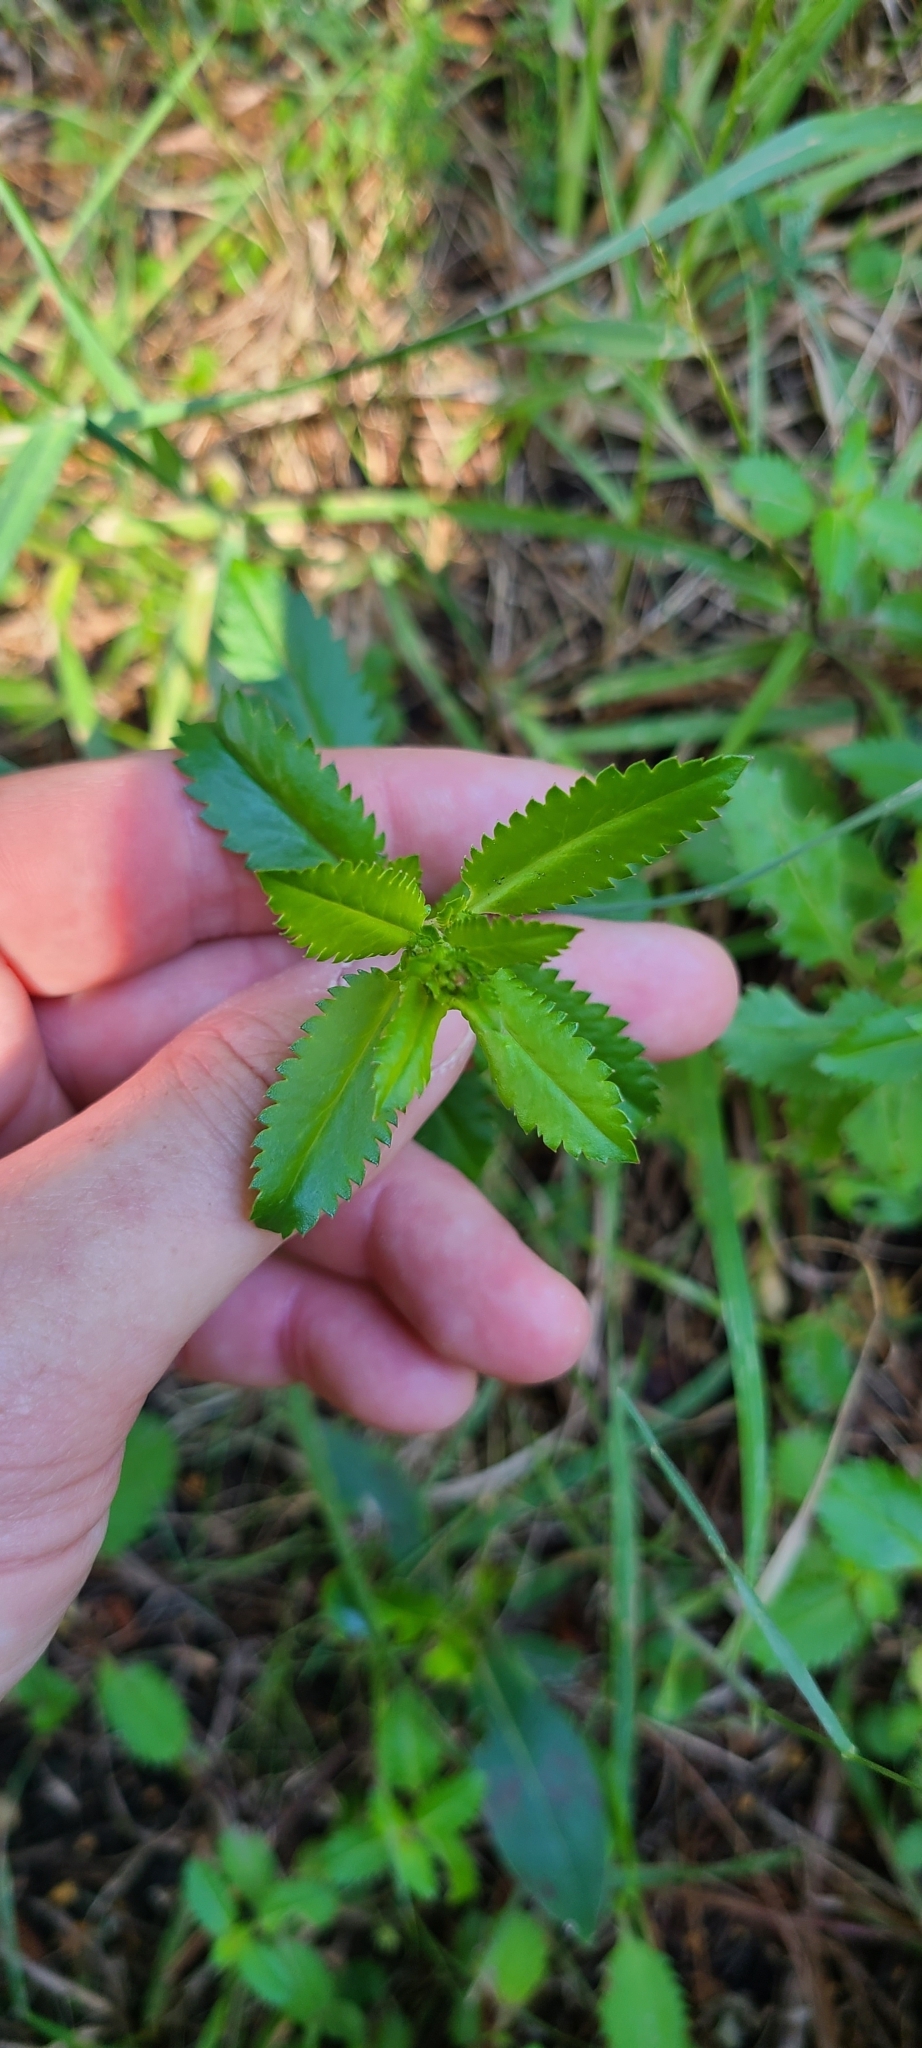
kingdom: Plantae
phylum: Tracheophyta
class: Magnoliopsida
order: Saxifragales
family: Haloragaceae
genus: Haloragis
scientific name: Haloragis erecta
